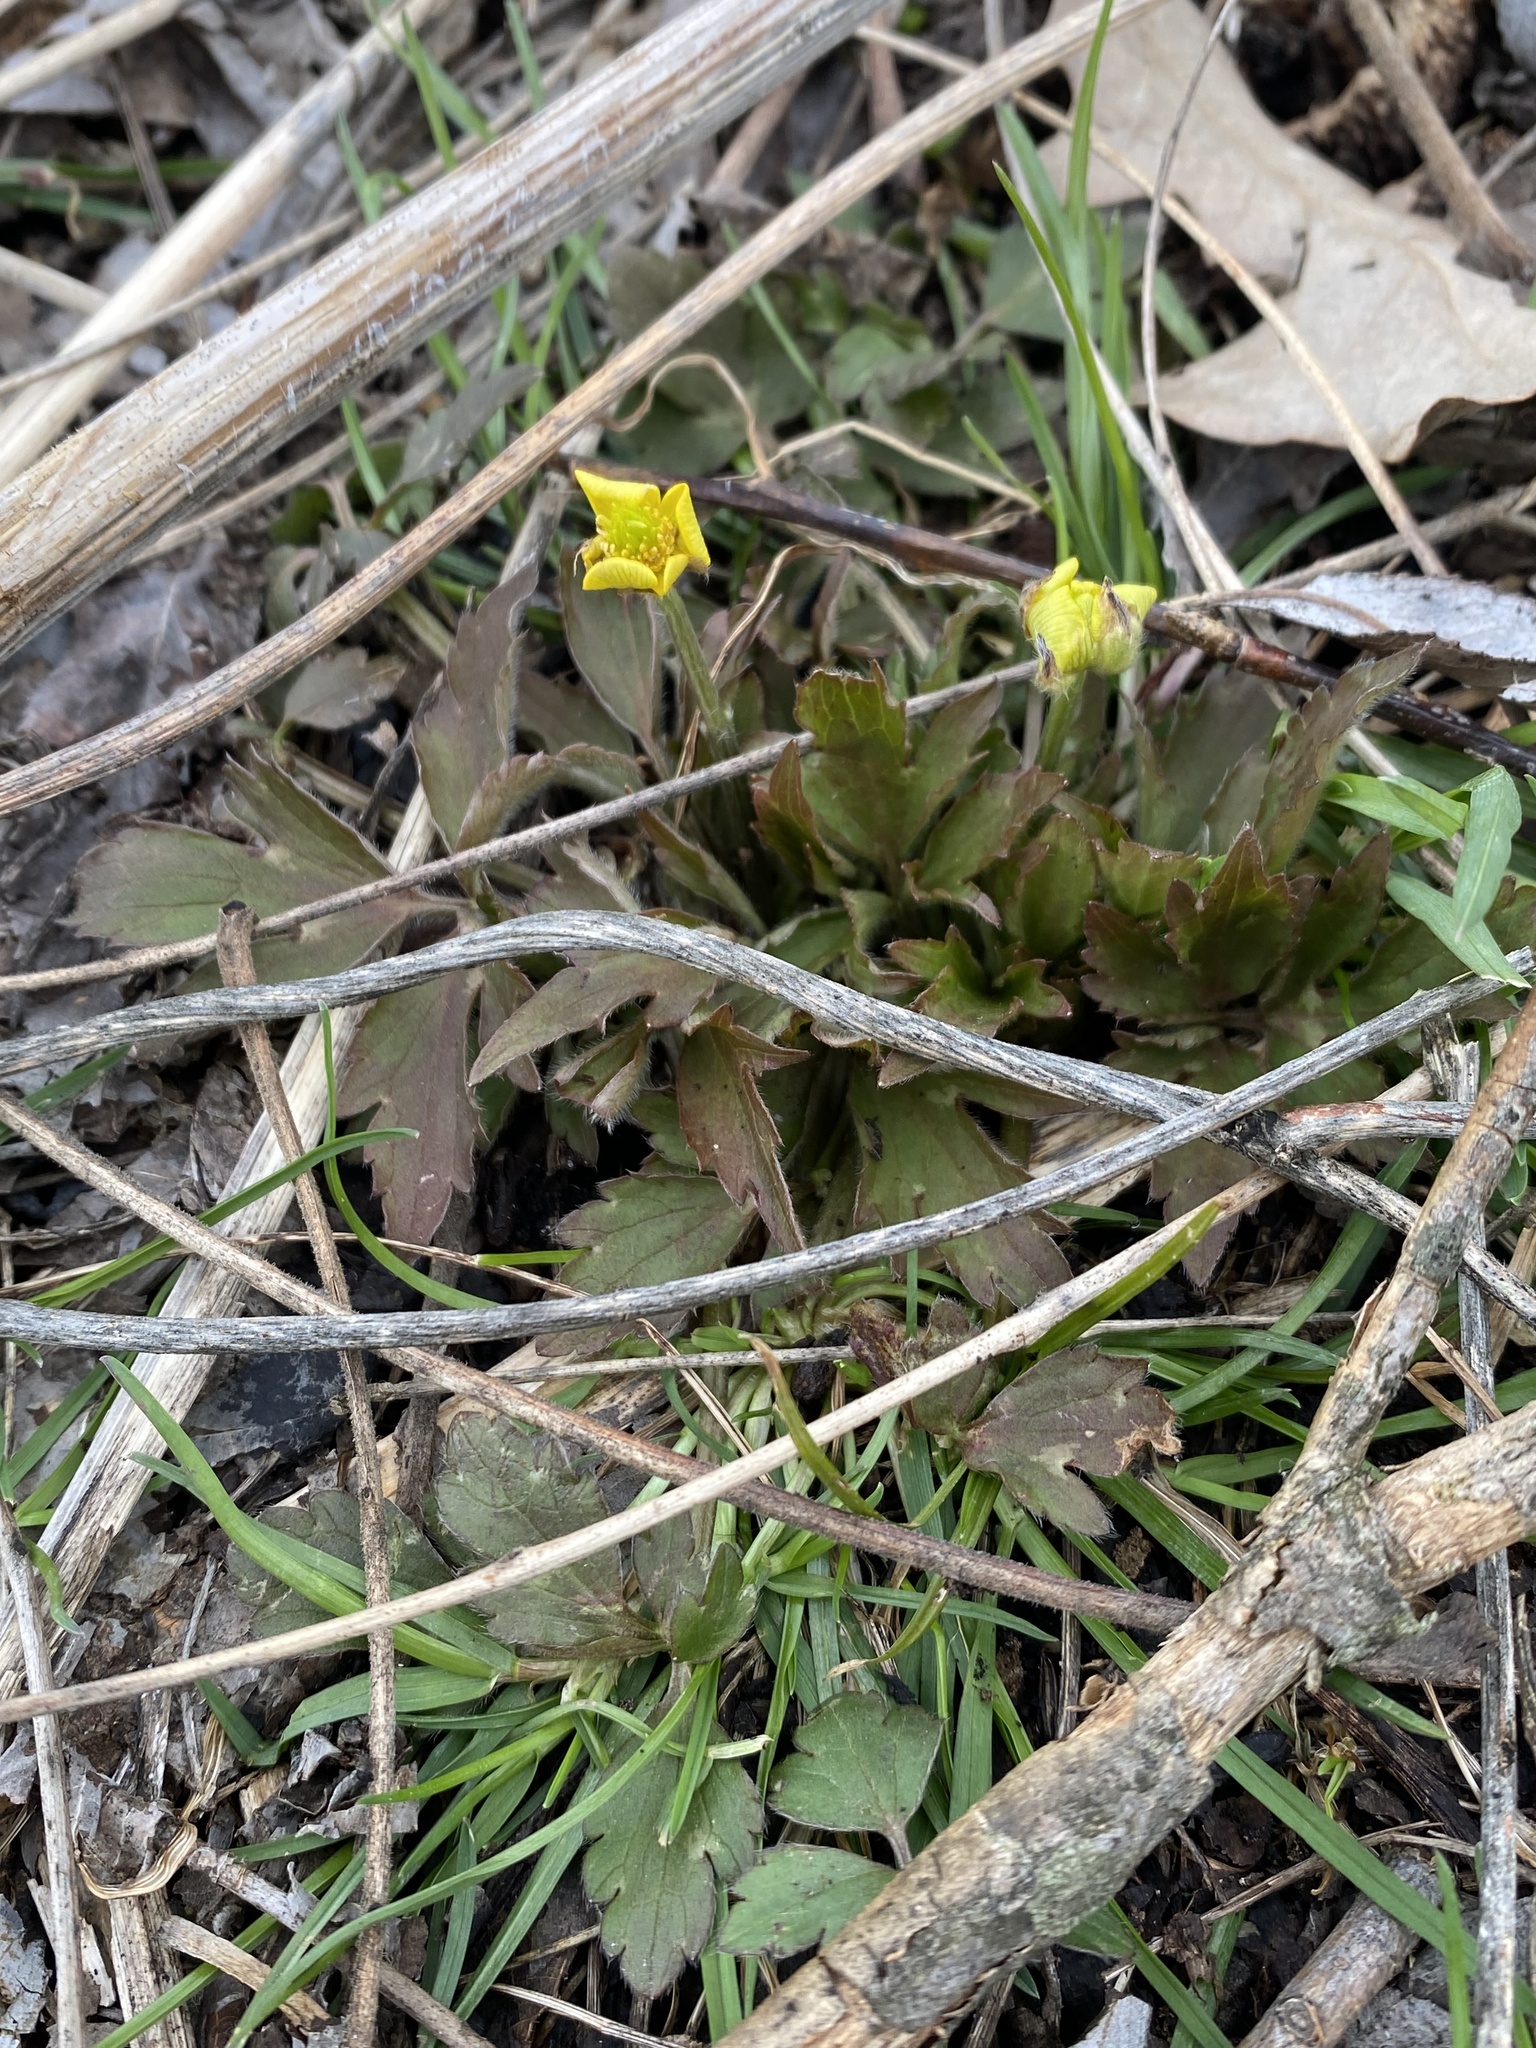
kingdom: Plantae
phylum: Tracheophyta
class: Magnoliopsida
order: Ranunculales
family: Ranunculaceae
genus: Ranunculus
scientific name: Ranunculus hispidus
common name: Bristly buttercup
